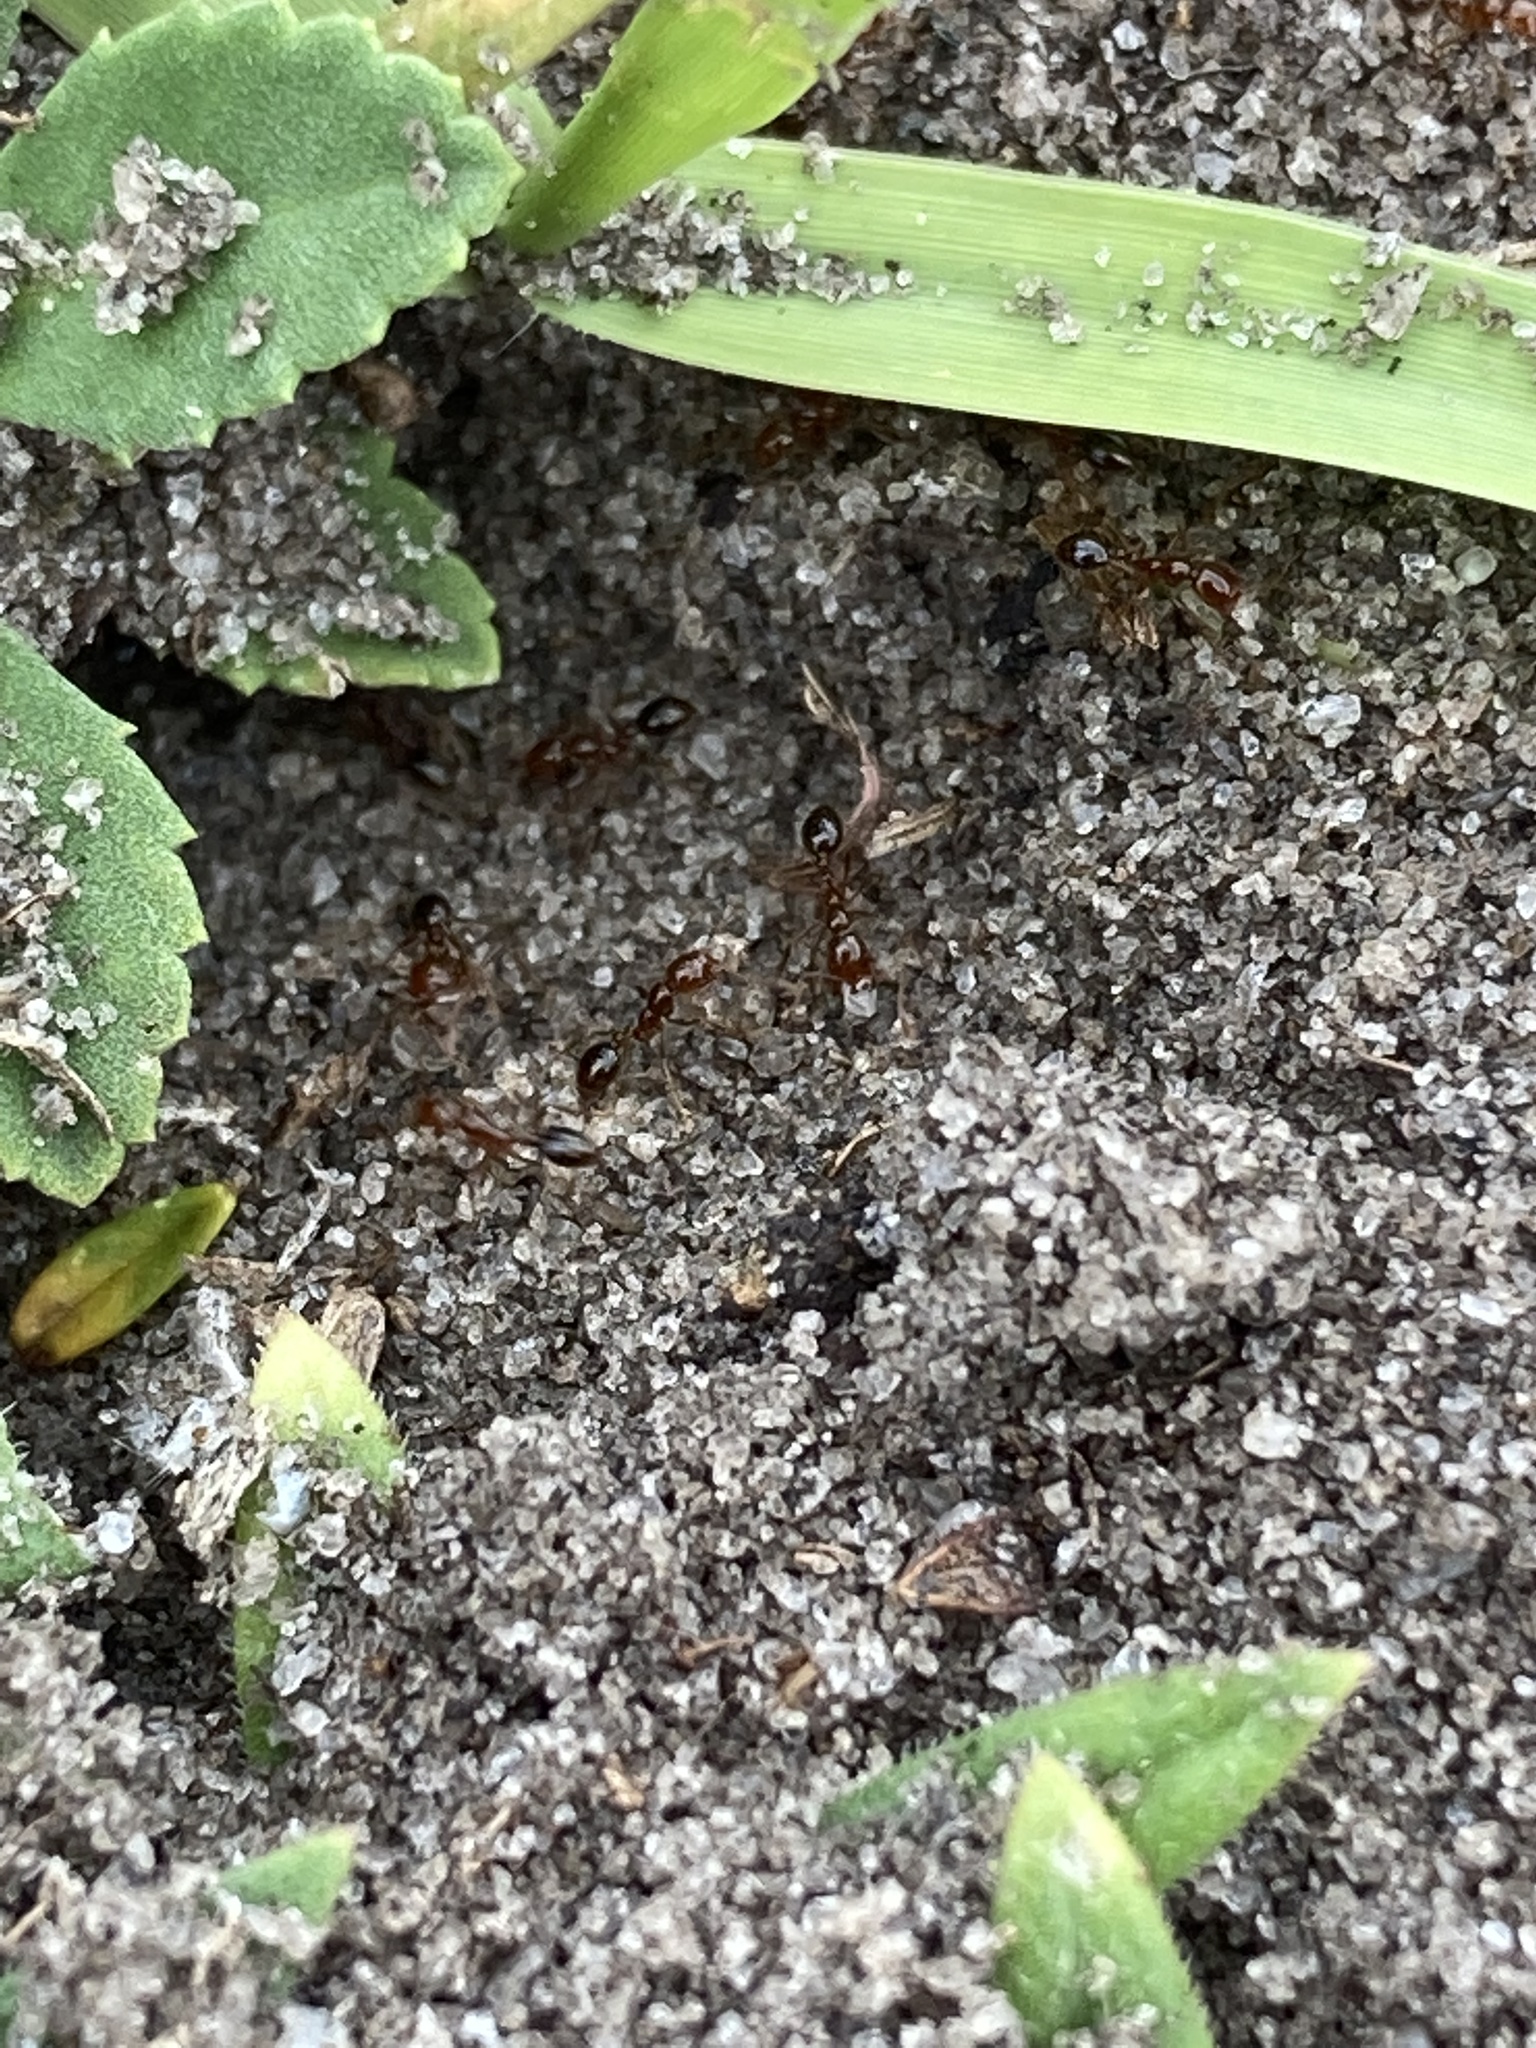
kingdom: Animalia
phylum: Arthropoda
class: Insecta
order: Hymenoptera
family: Formicidae
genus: Solenopsis
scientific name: Solenopsis invicta
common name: Red imported fire ant
